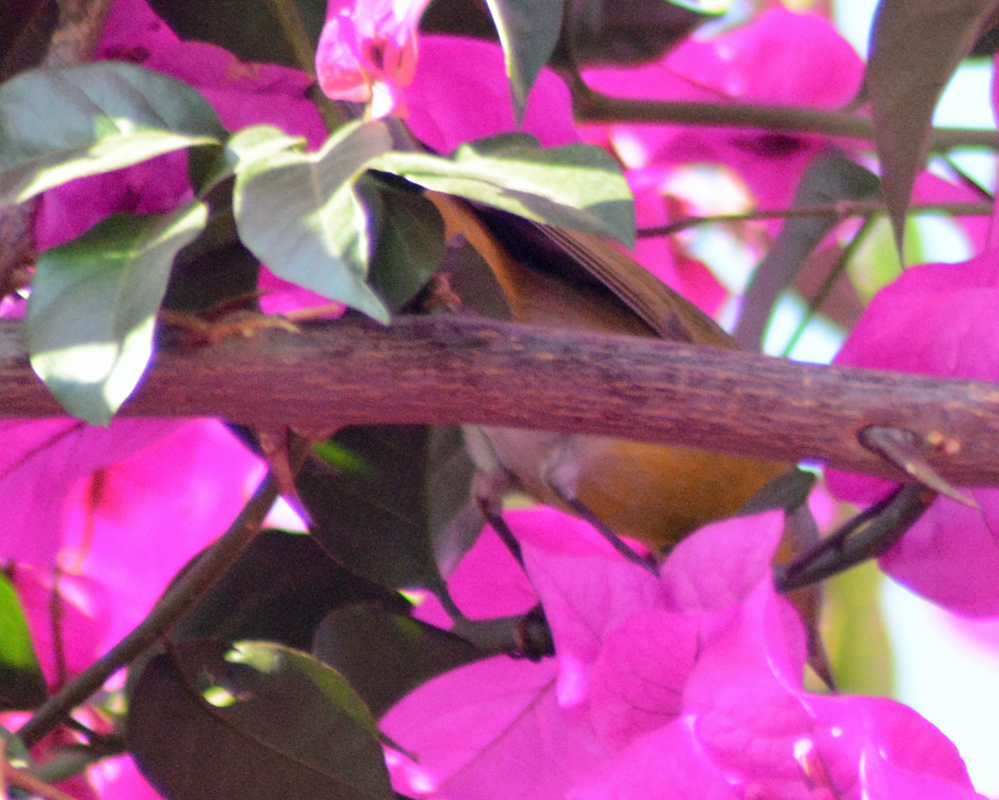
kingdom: Animalia
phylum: Chordata
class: Aves
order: Passeriformes
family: Parulidae
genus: Leiothlypis
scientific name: Leiothlypis ruficapilla
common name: Nashville warbler
